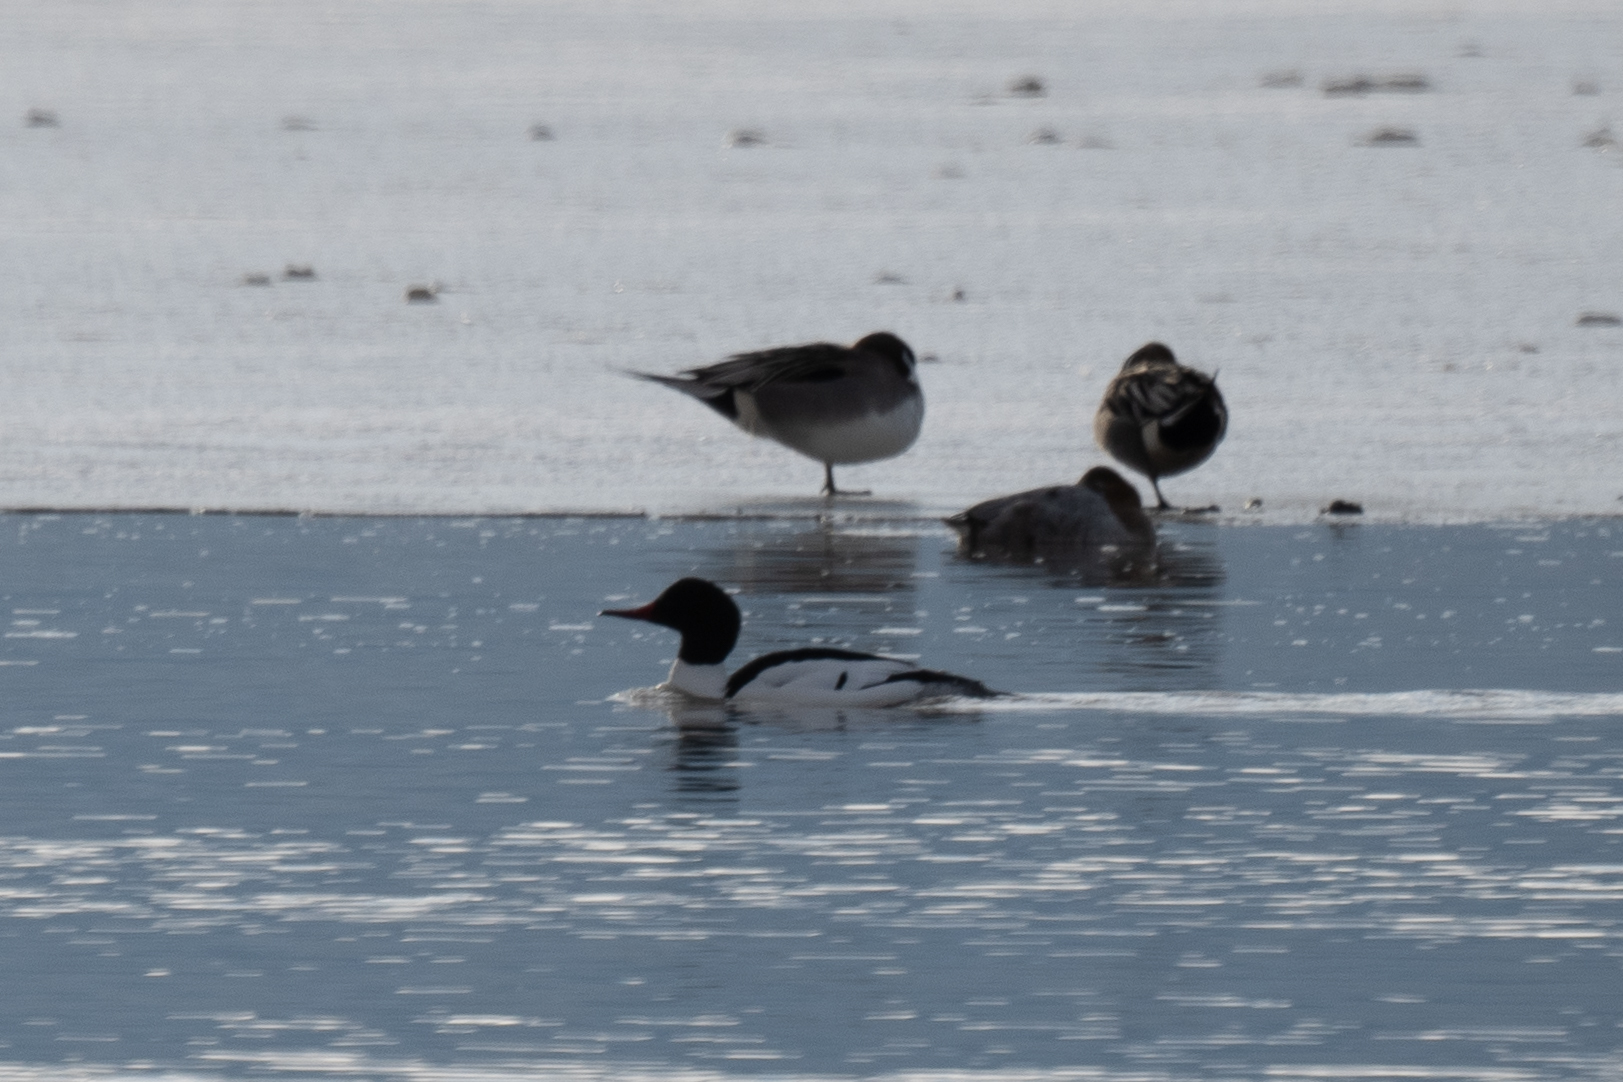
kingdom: Animalia
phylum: Chordata
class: Aves
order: Anseriformes
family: Anatidae
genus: Mergus
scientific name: Mergus merganser
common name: Common merganser
